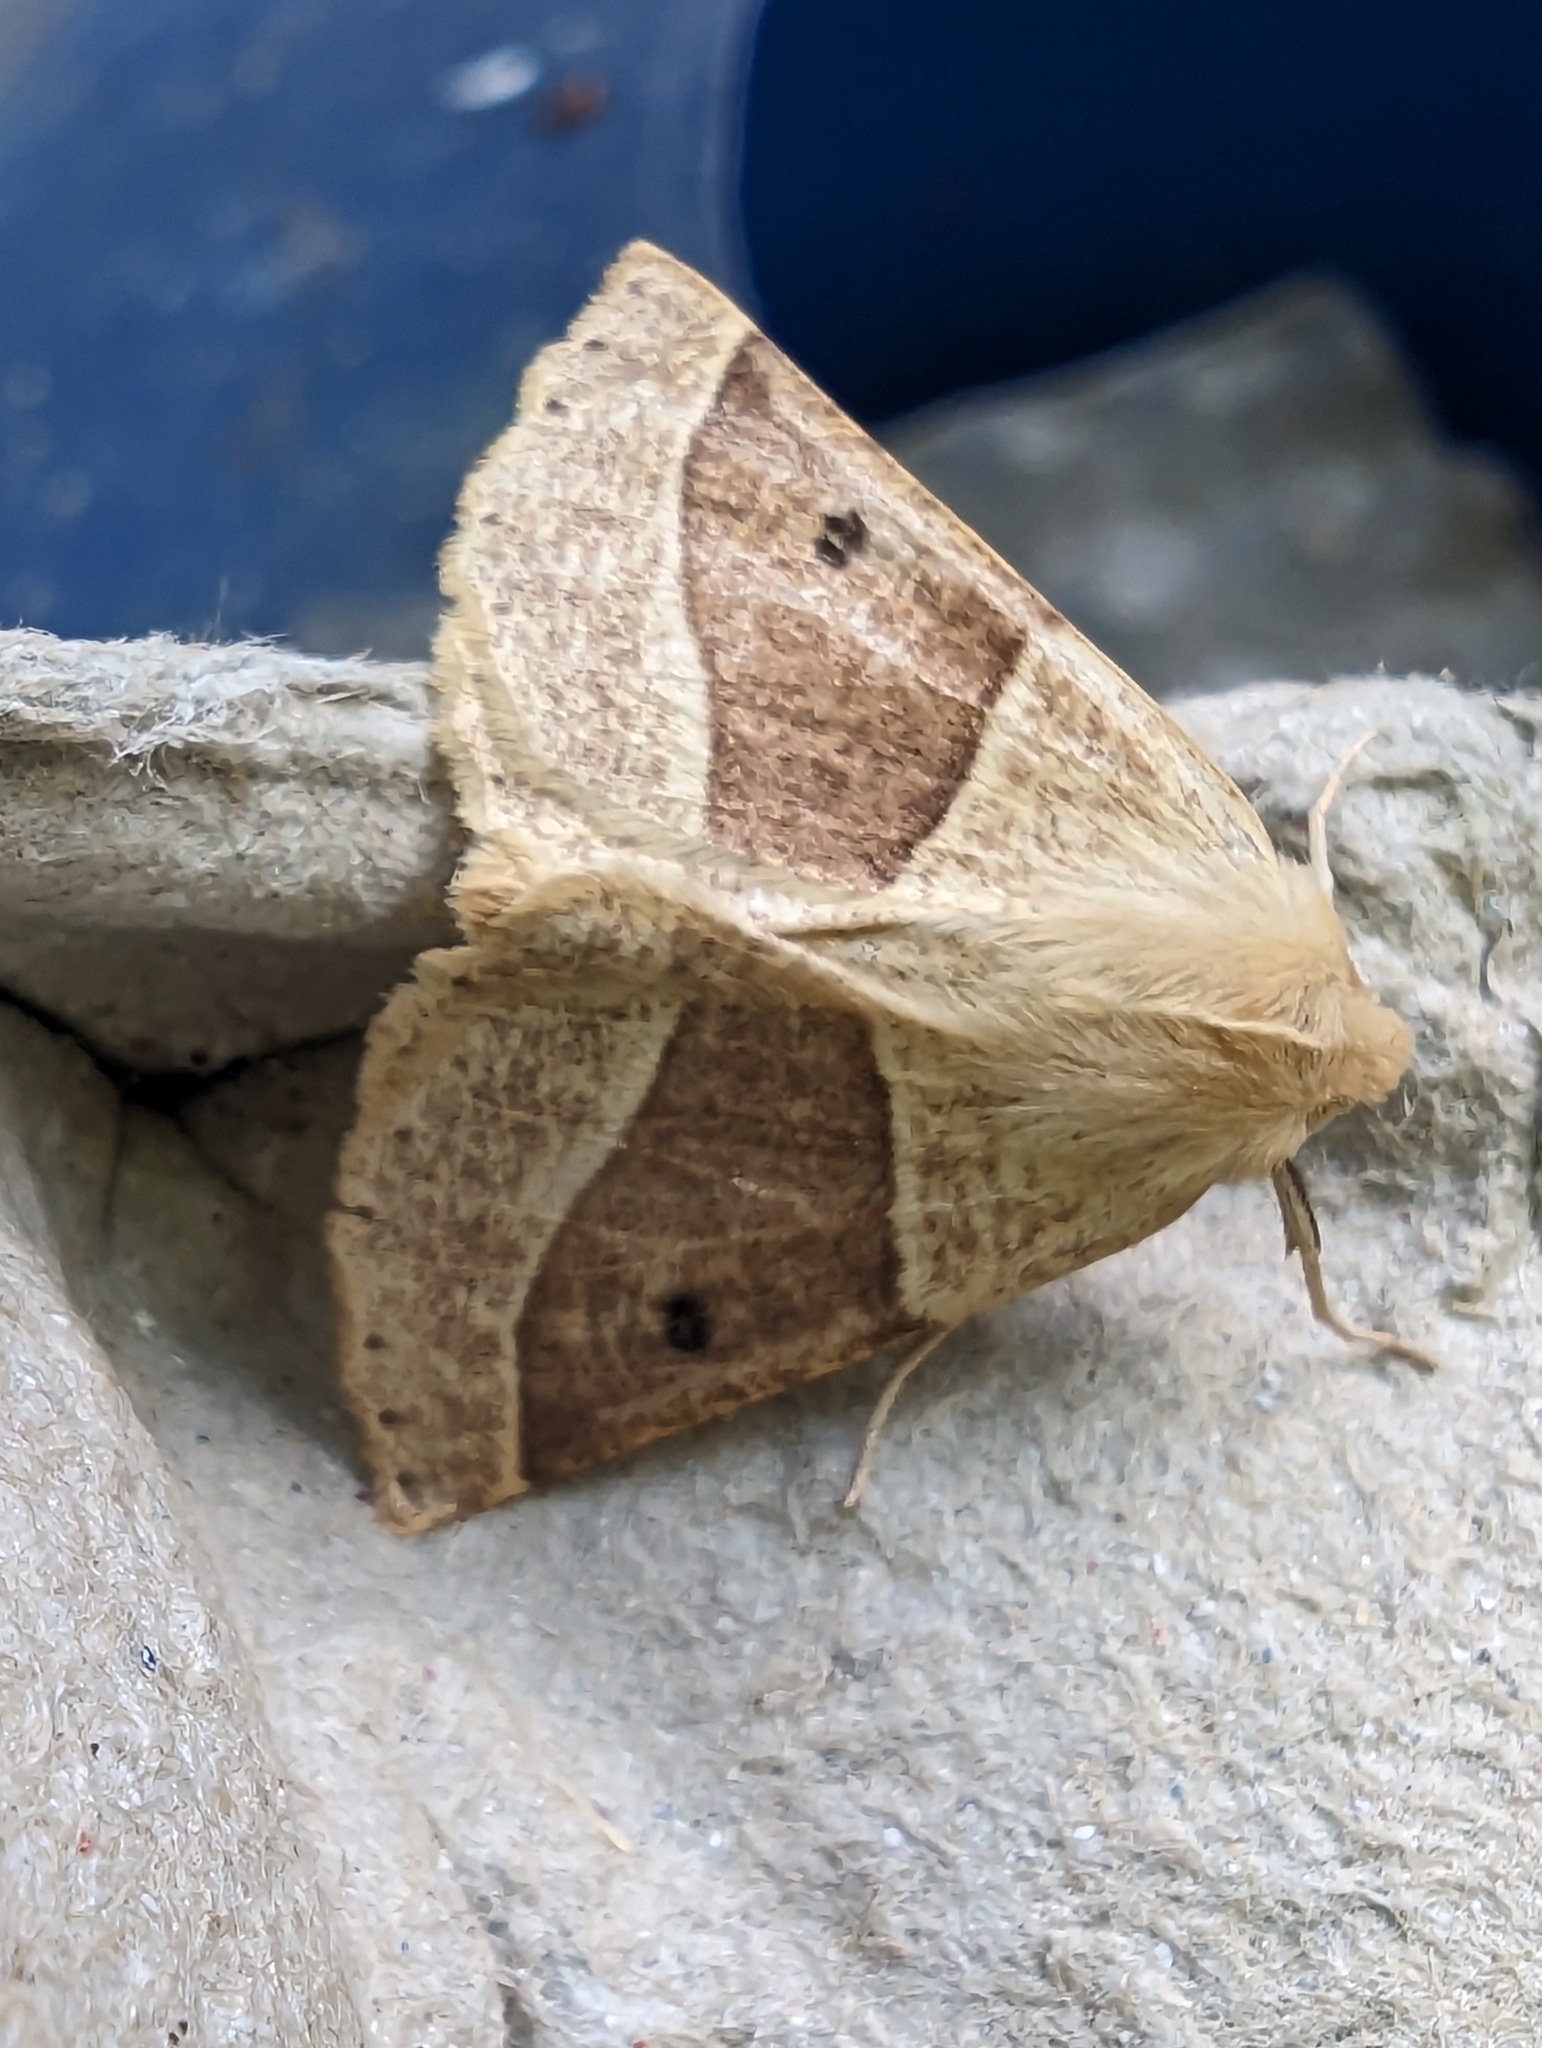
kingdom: Animalia
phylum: Arthropoda
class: Insecta
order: Lepidoptera
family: Geometridae
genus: Crocallis
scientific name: Crocallis elinguaria
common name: Scalloped oak
